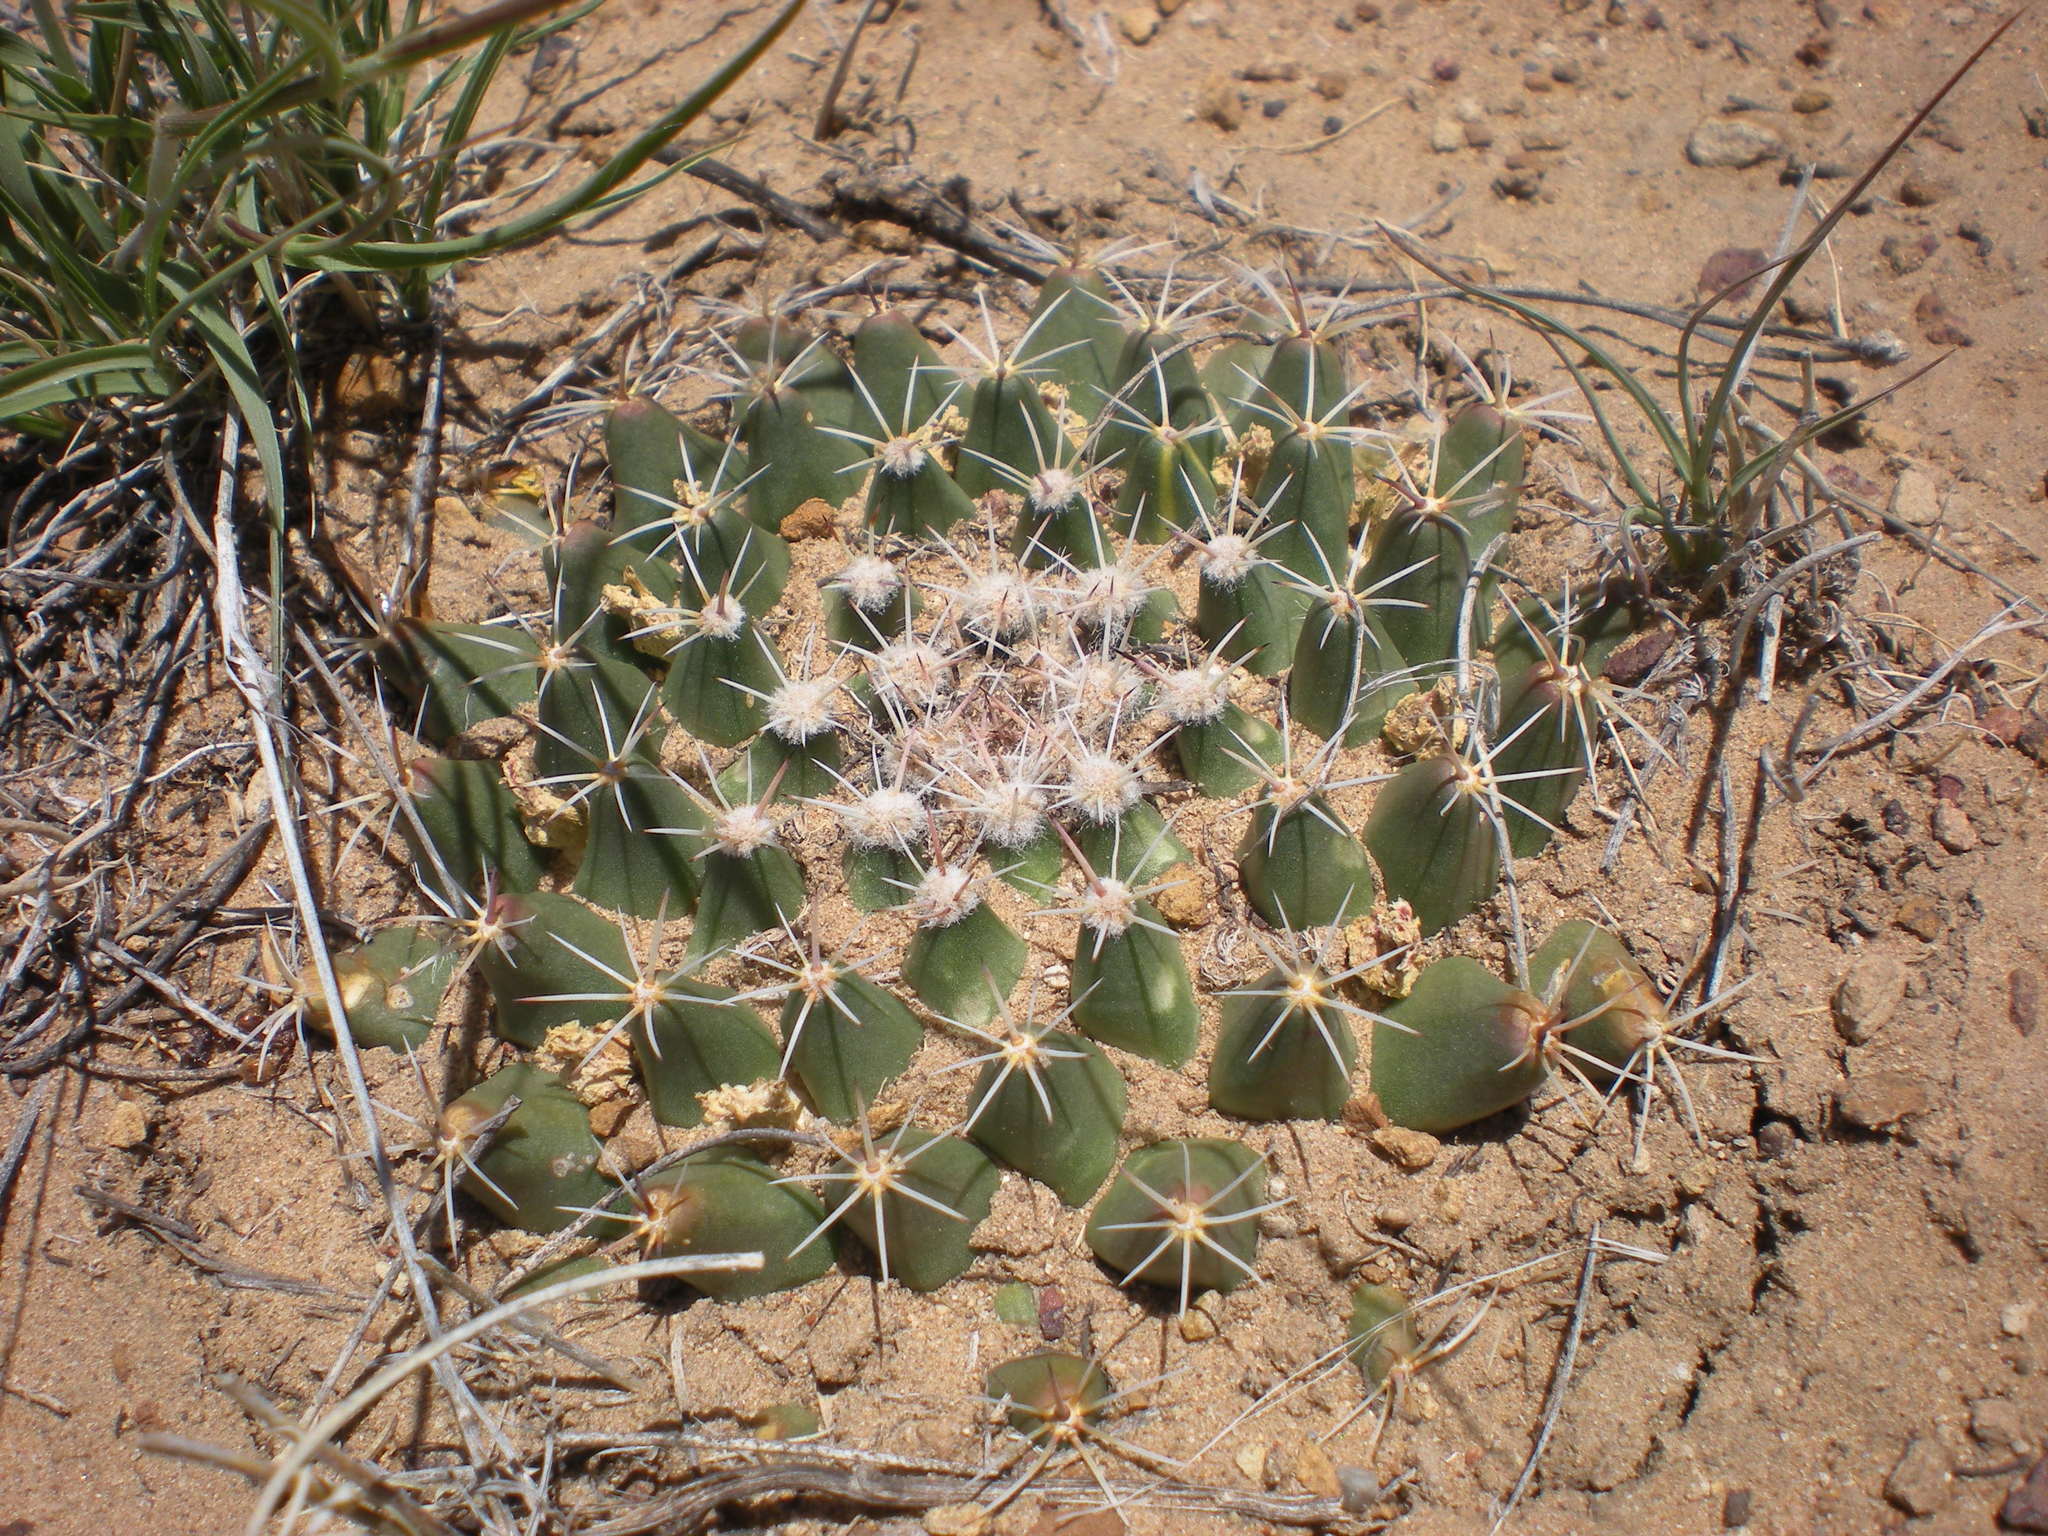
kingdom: Plantae
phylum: Tracheophyta
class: Magnoliopsida
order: Caryophyllales
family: Cactaceae
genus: Mammillaria
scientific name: Mammillaria heyderi
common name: Little nipple cactus
